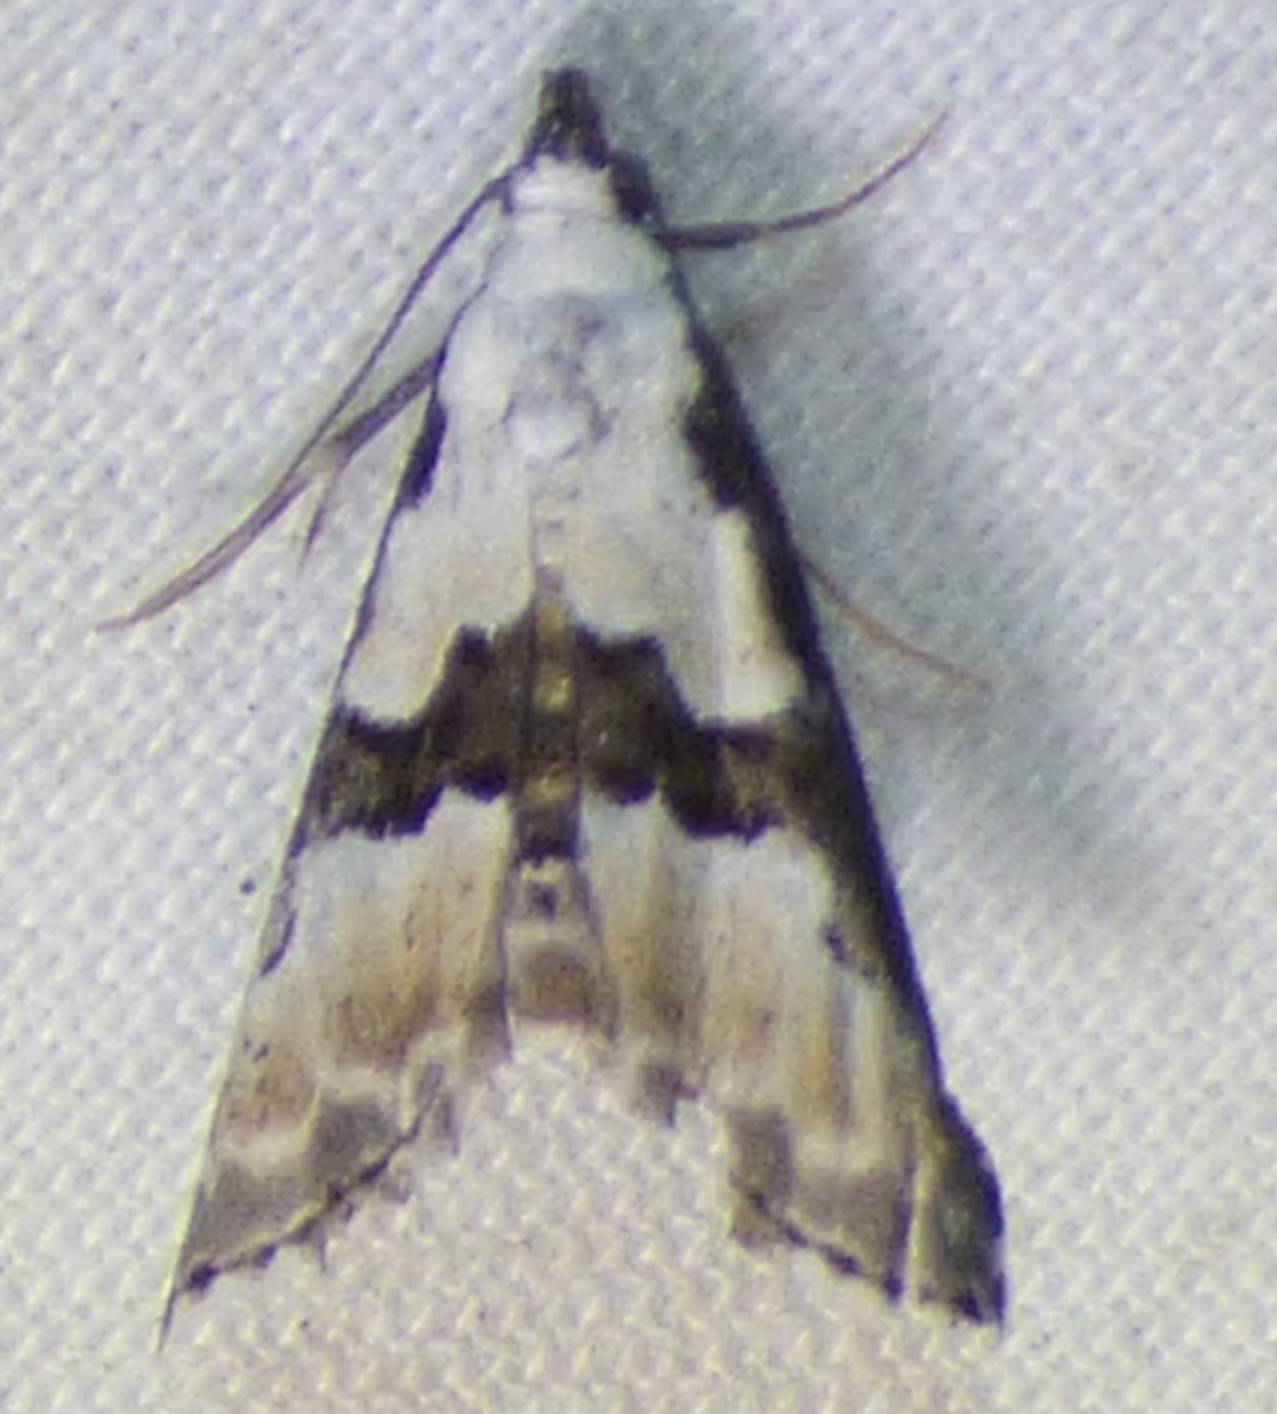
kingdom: Animalia
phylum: Arthropoda
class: Insecta
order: Lepidoptera
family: Noctuidae
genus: Nigetia
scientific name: Nigetia formosalis
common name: Thin-winged owlet
